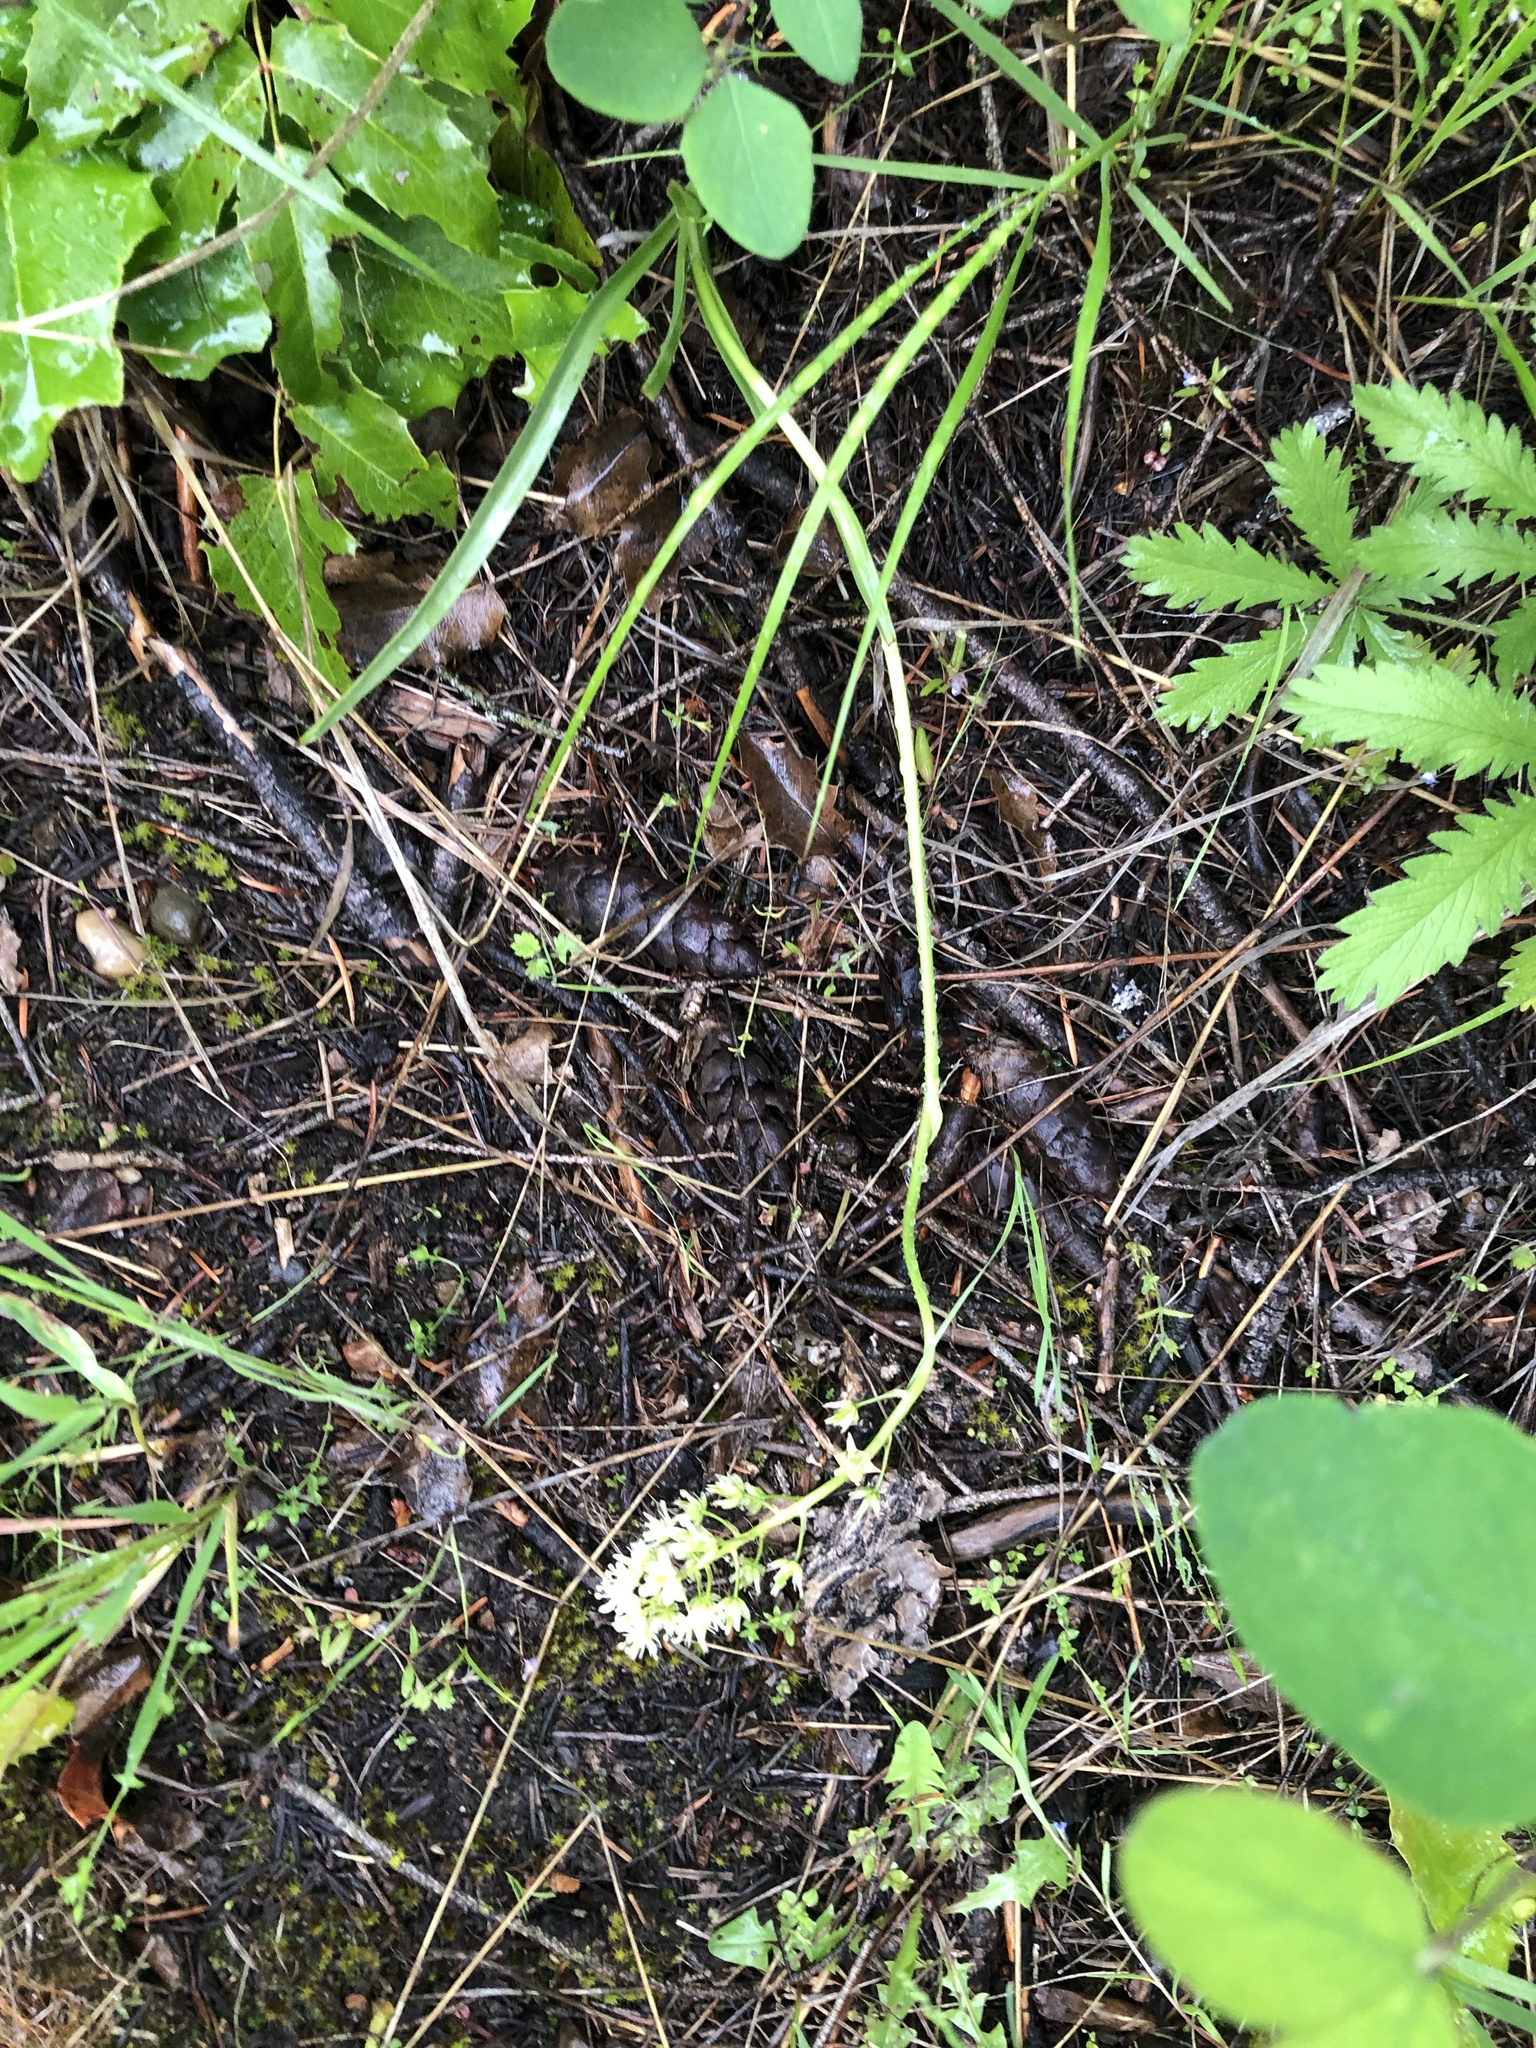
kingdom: Plantae
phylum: Tracheophyta
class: Liliopsida
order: Liliales
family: Melanthiaceae
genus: Toxicoscordion
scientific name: Toxicoscordion venenosum
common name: Meadow death camas
